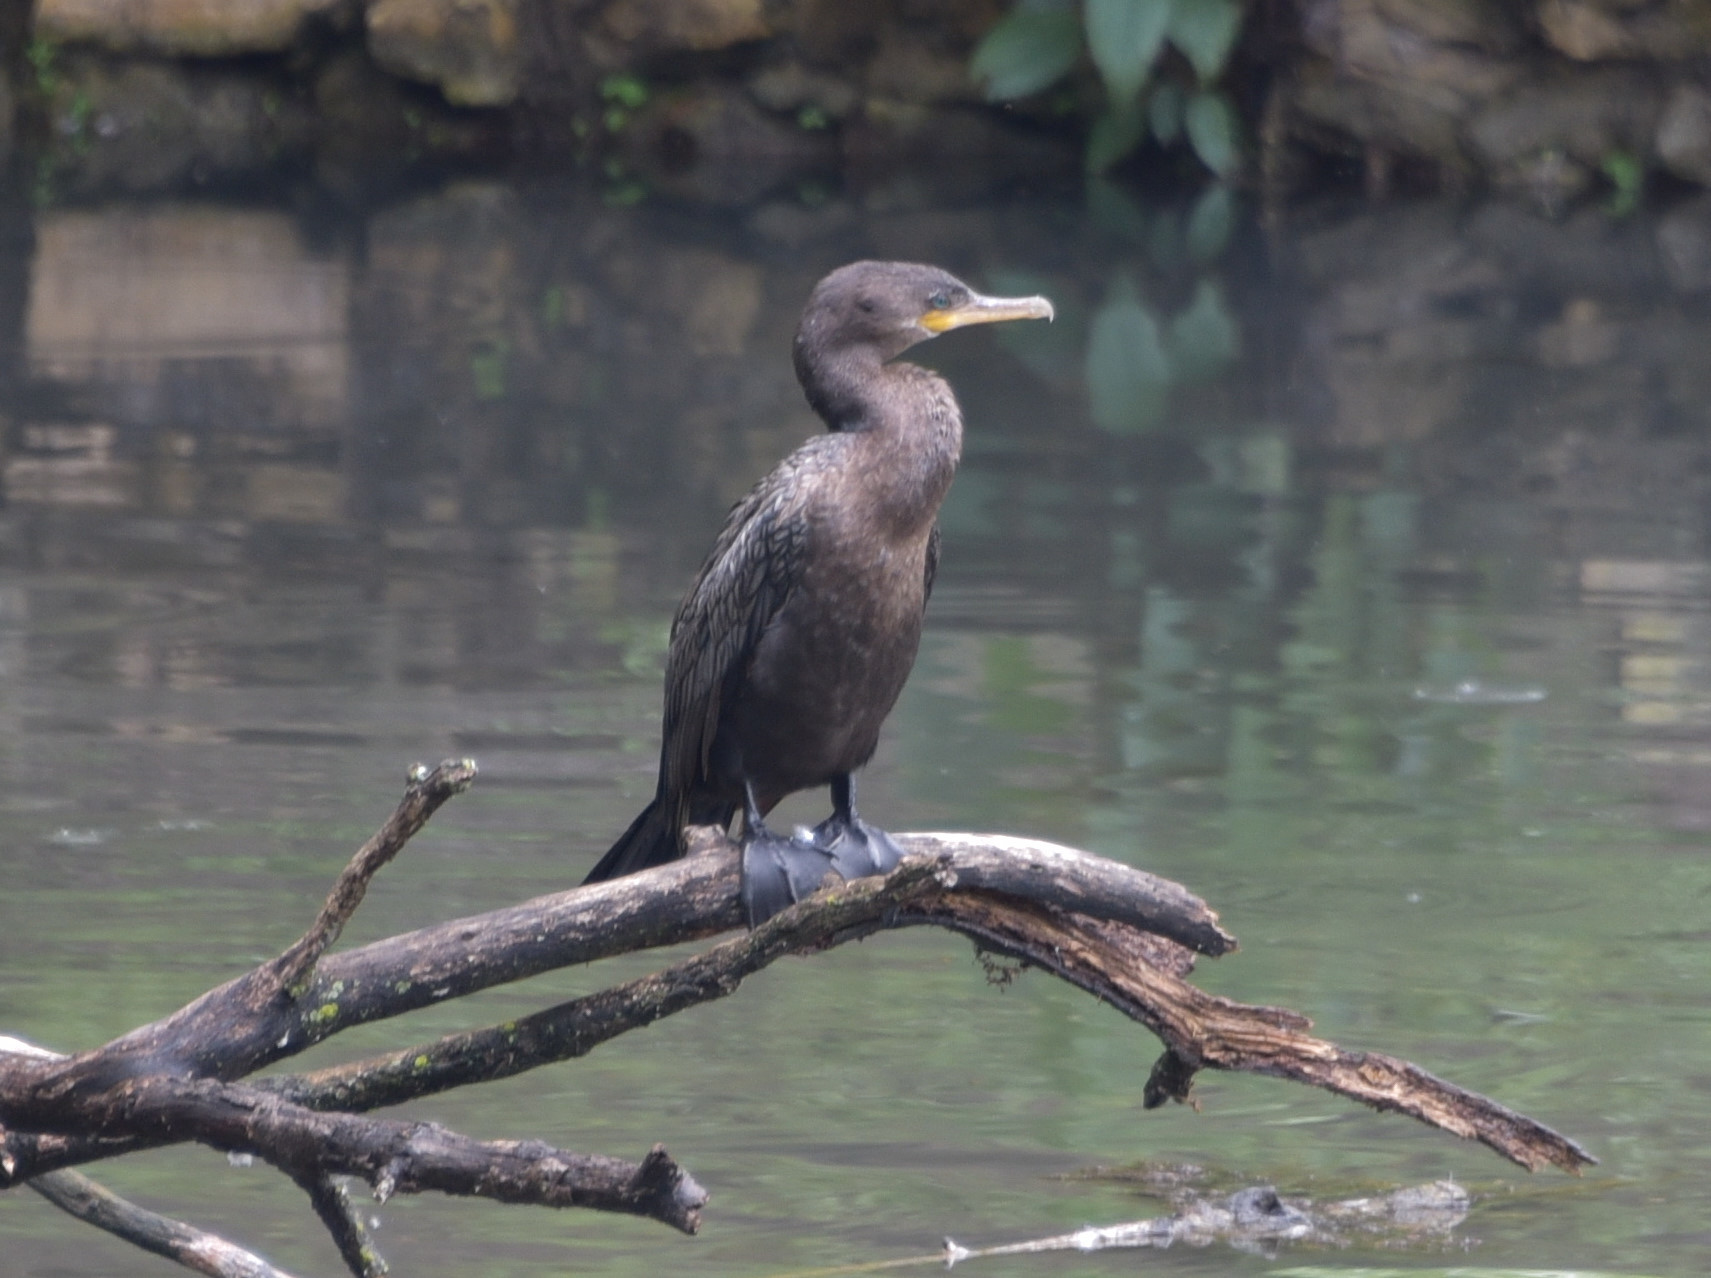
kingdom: Animalia
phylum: Chordata
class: Aves
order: Suliformes
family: Phalacrocoracidae
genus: Phalacrocorax
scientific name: Phalacrocorax brasilianus
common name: Neotropic cormorant
